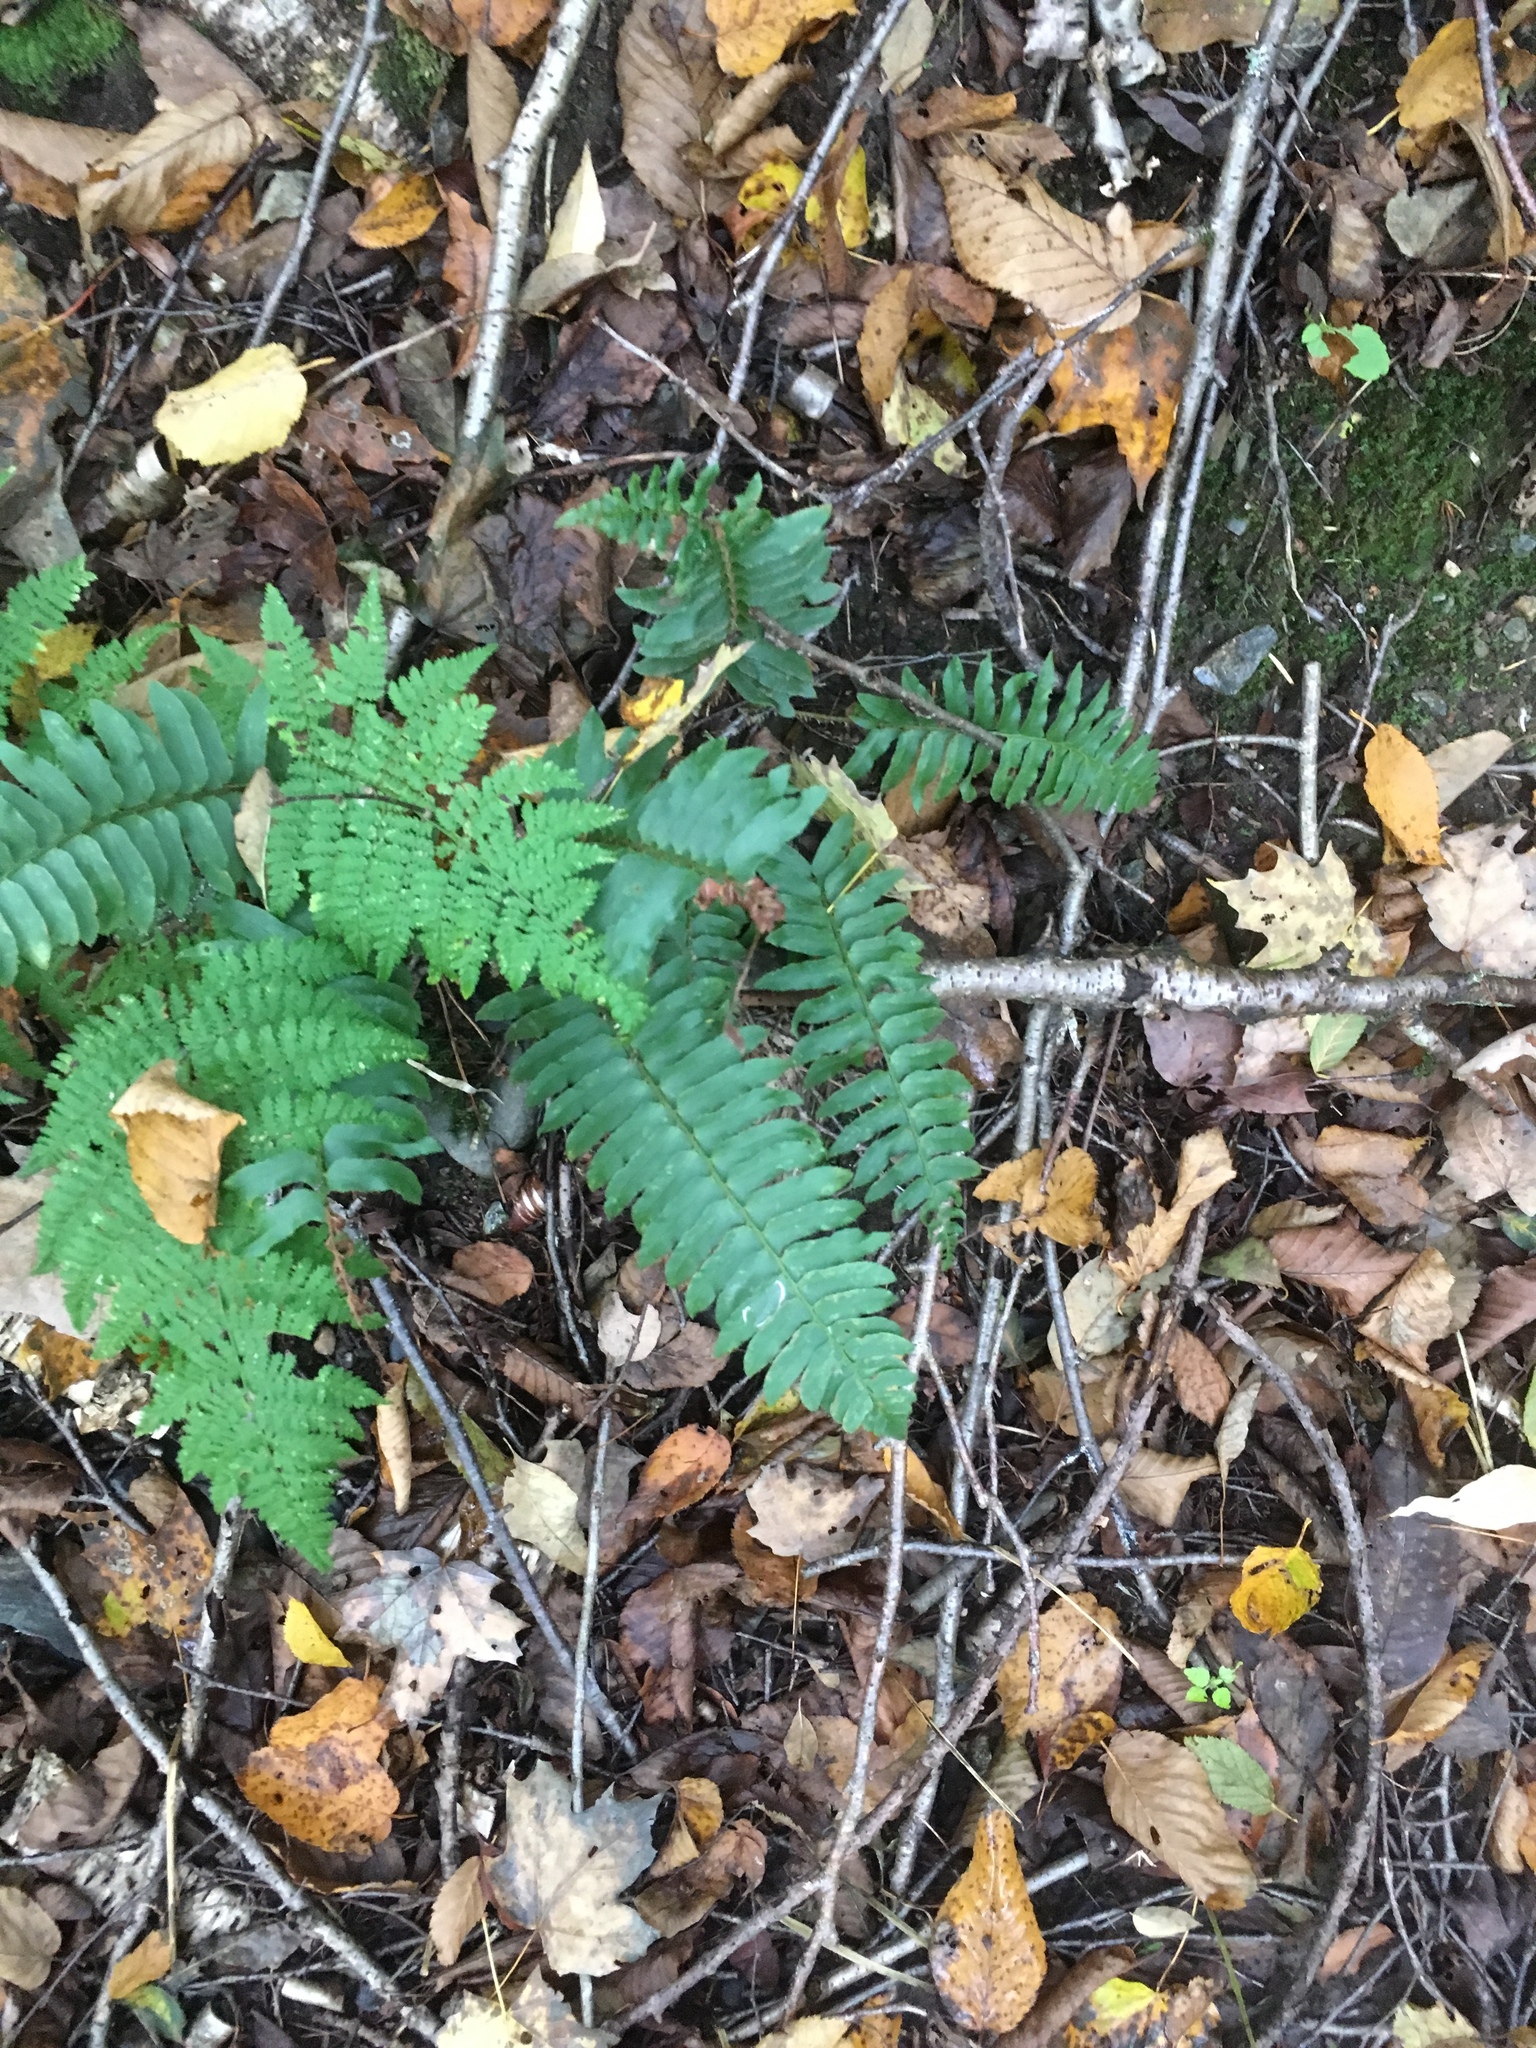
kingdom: Plantae
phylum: Tracheophyta
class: Polypodiopsida
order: Polypodiales
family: Dryopteridaceae
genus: Polystichum
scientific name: Polystichum acrostichoides
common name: Christmas fern
